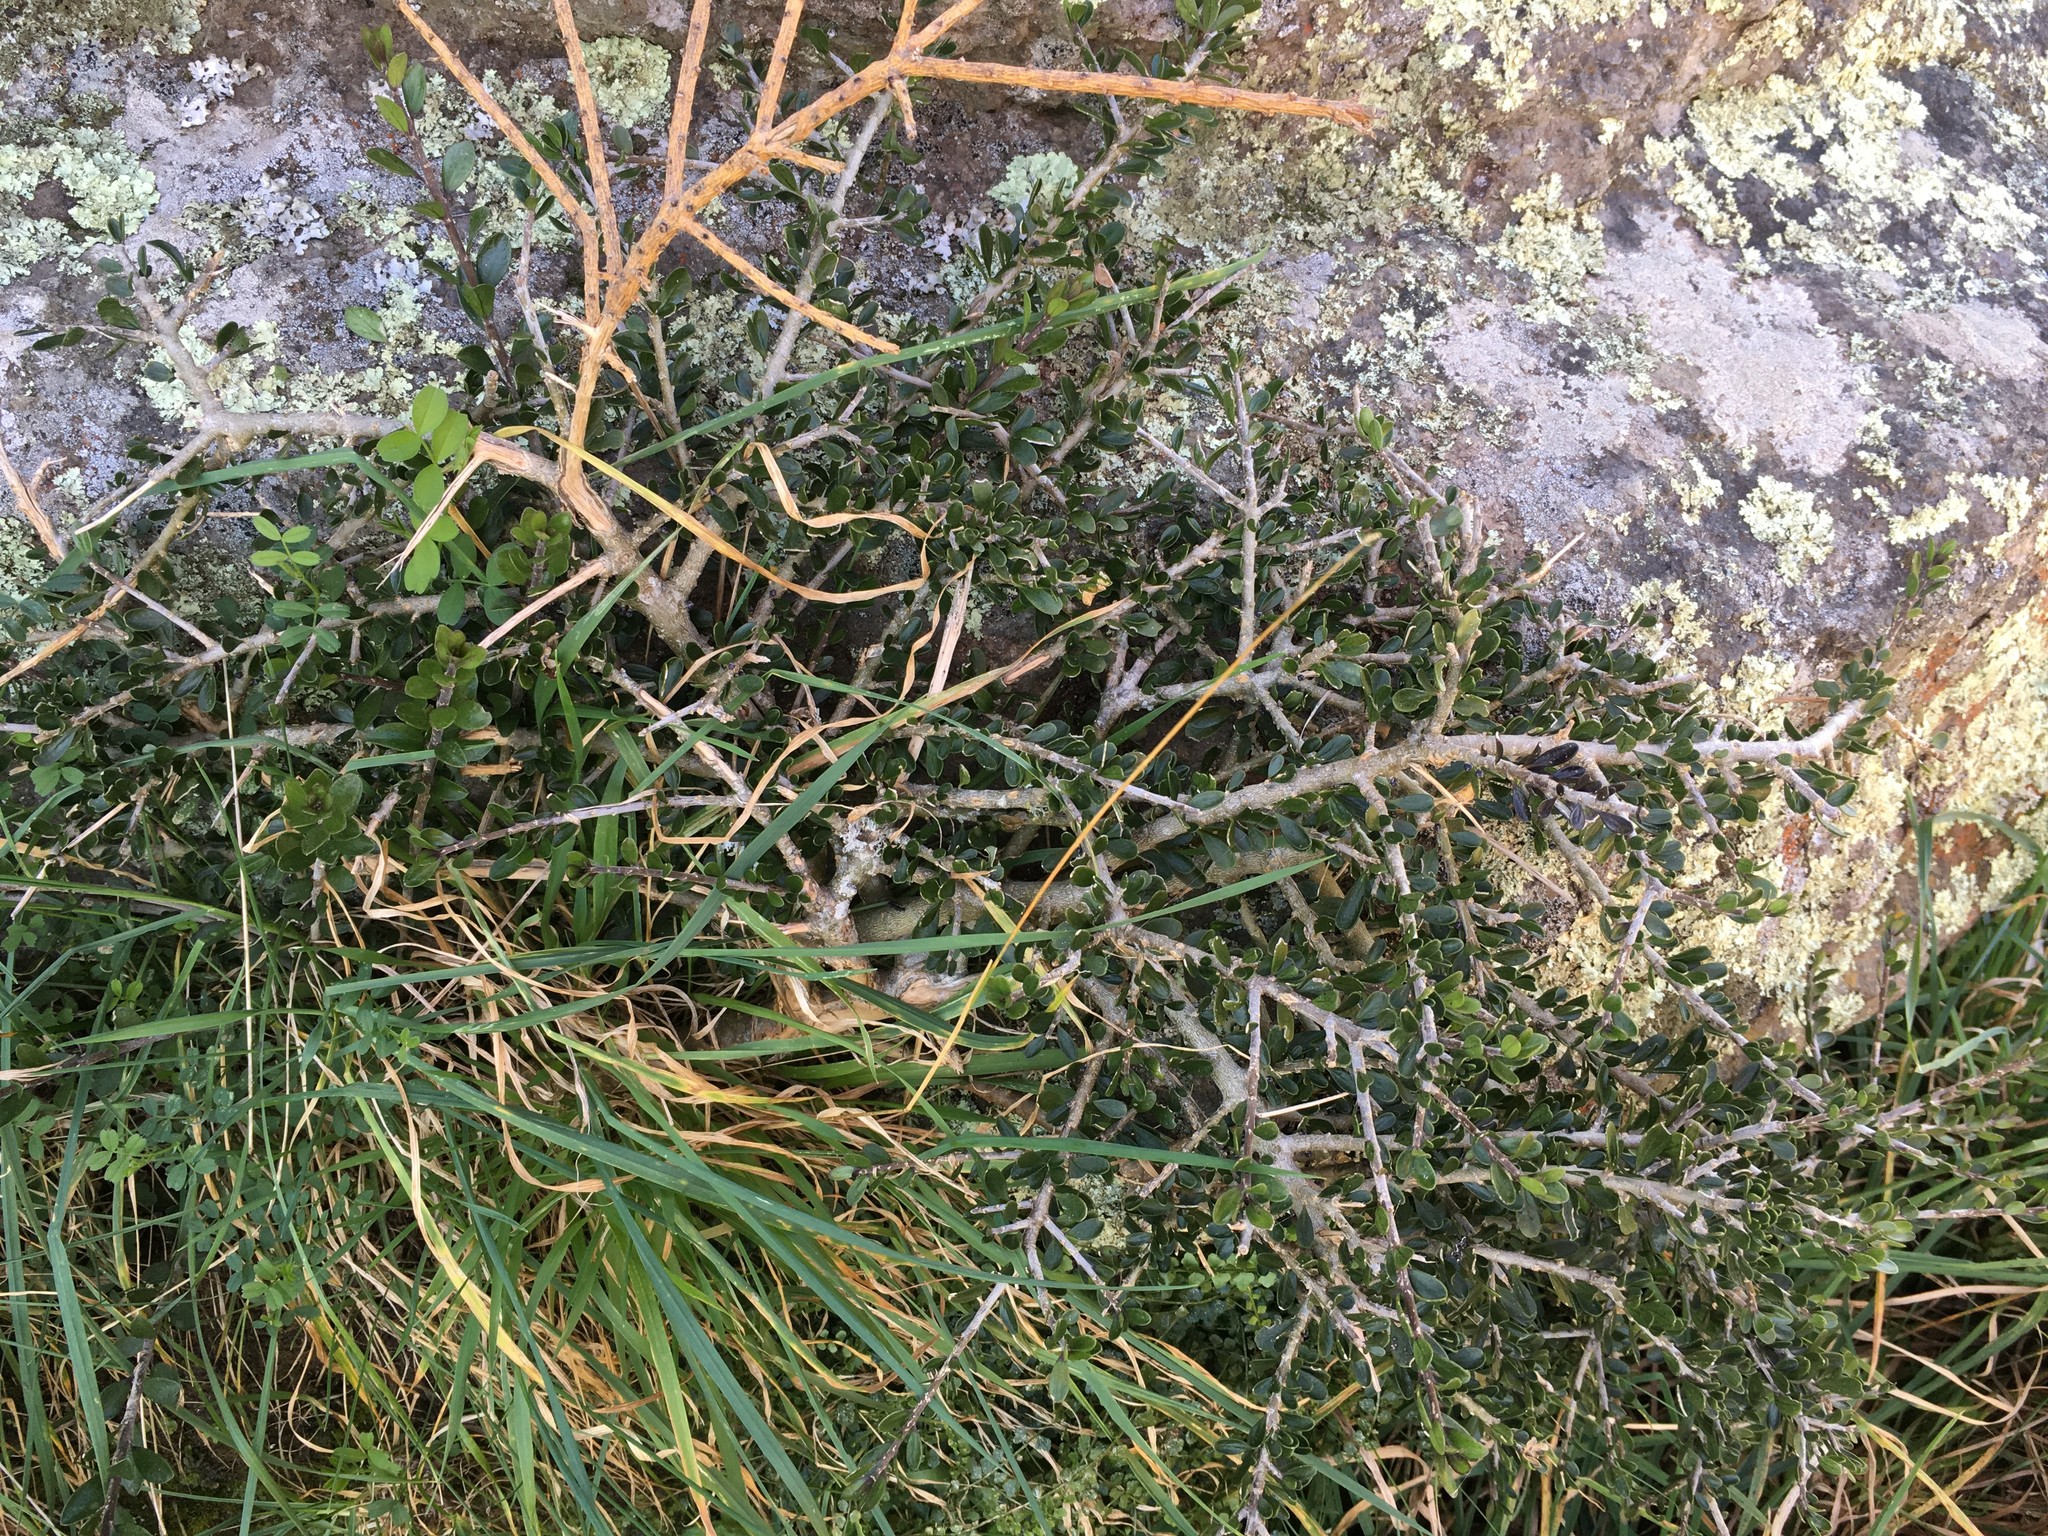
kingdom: Plantae
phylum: Tracheophyta
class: Magnoliopsida
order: Malpighiales
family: Violaceae
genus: Melicytus
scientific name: Melicytus alpinus
